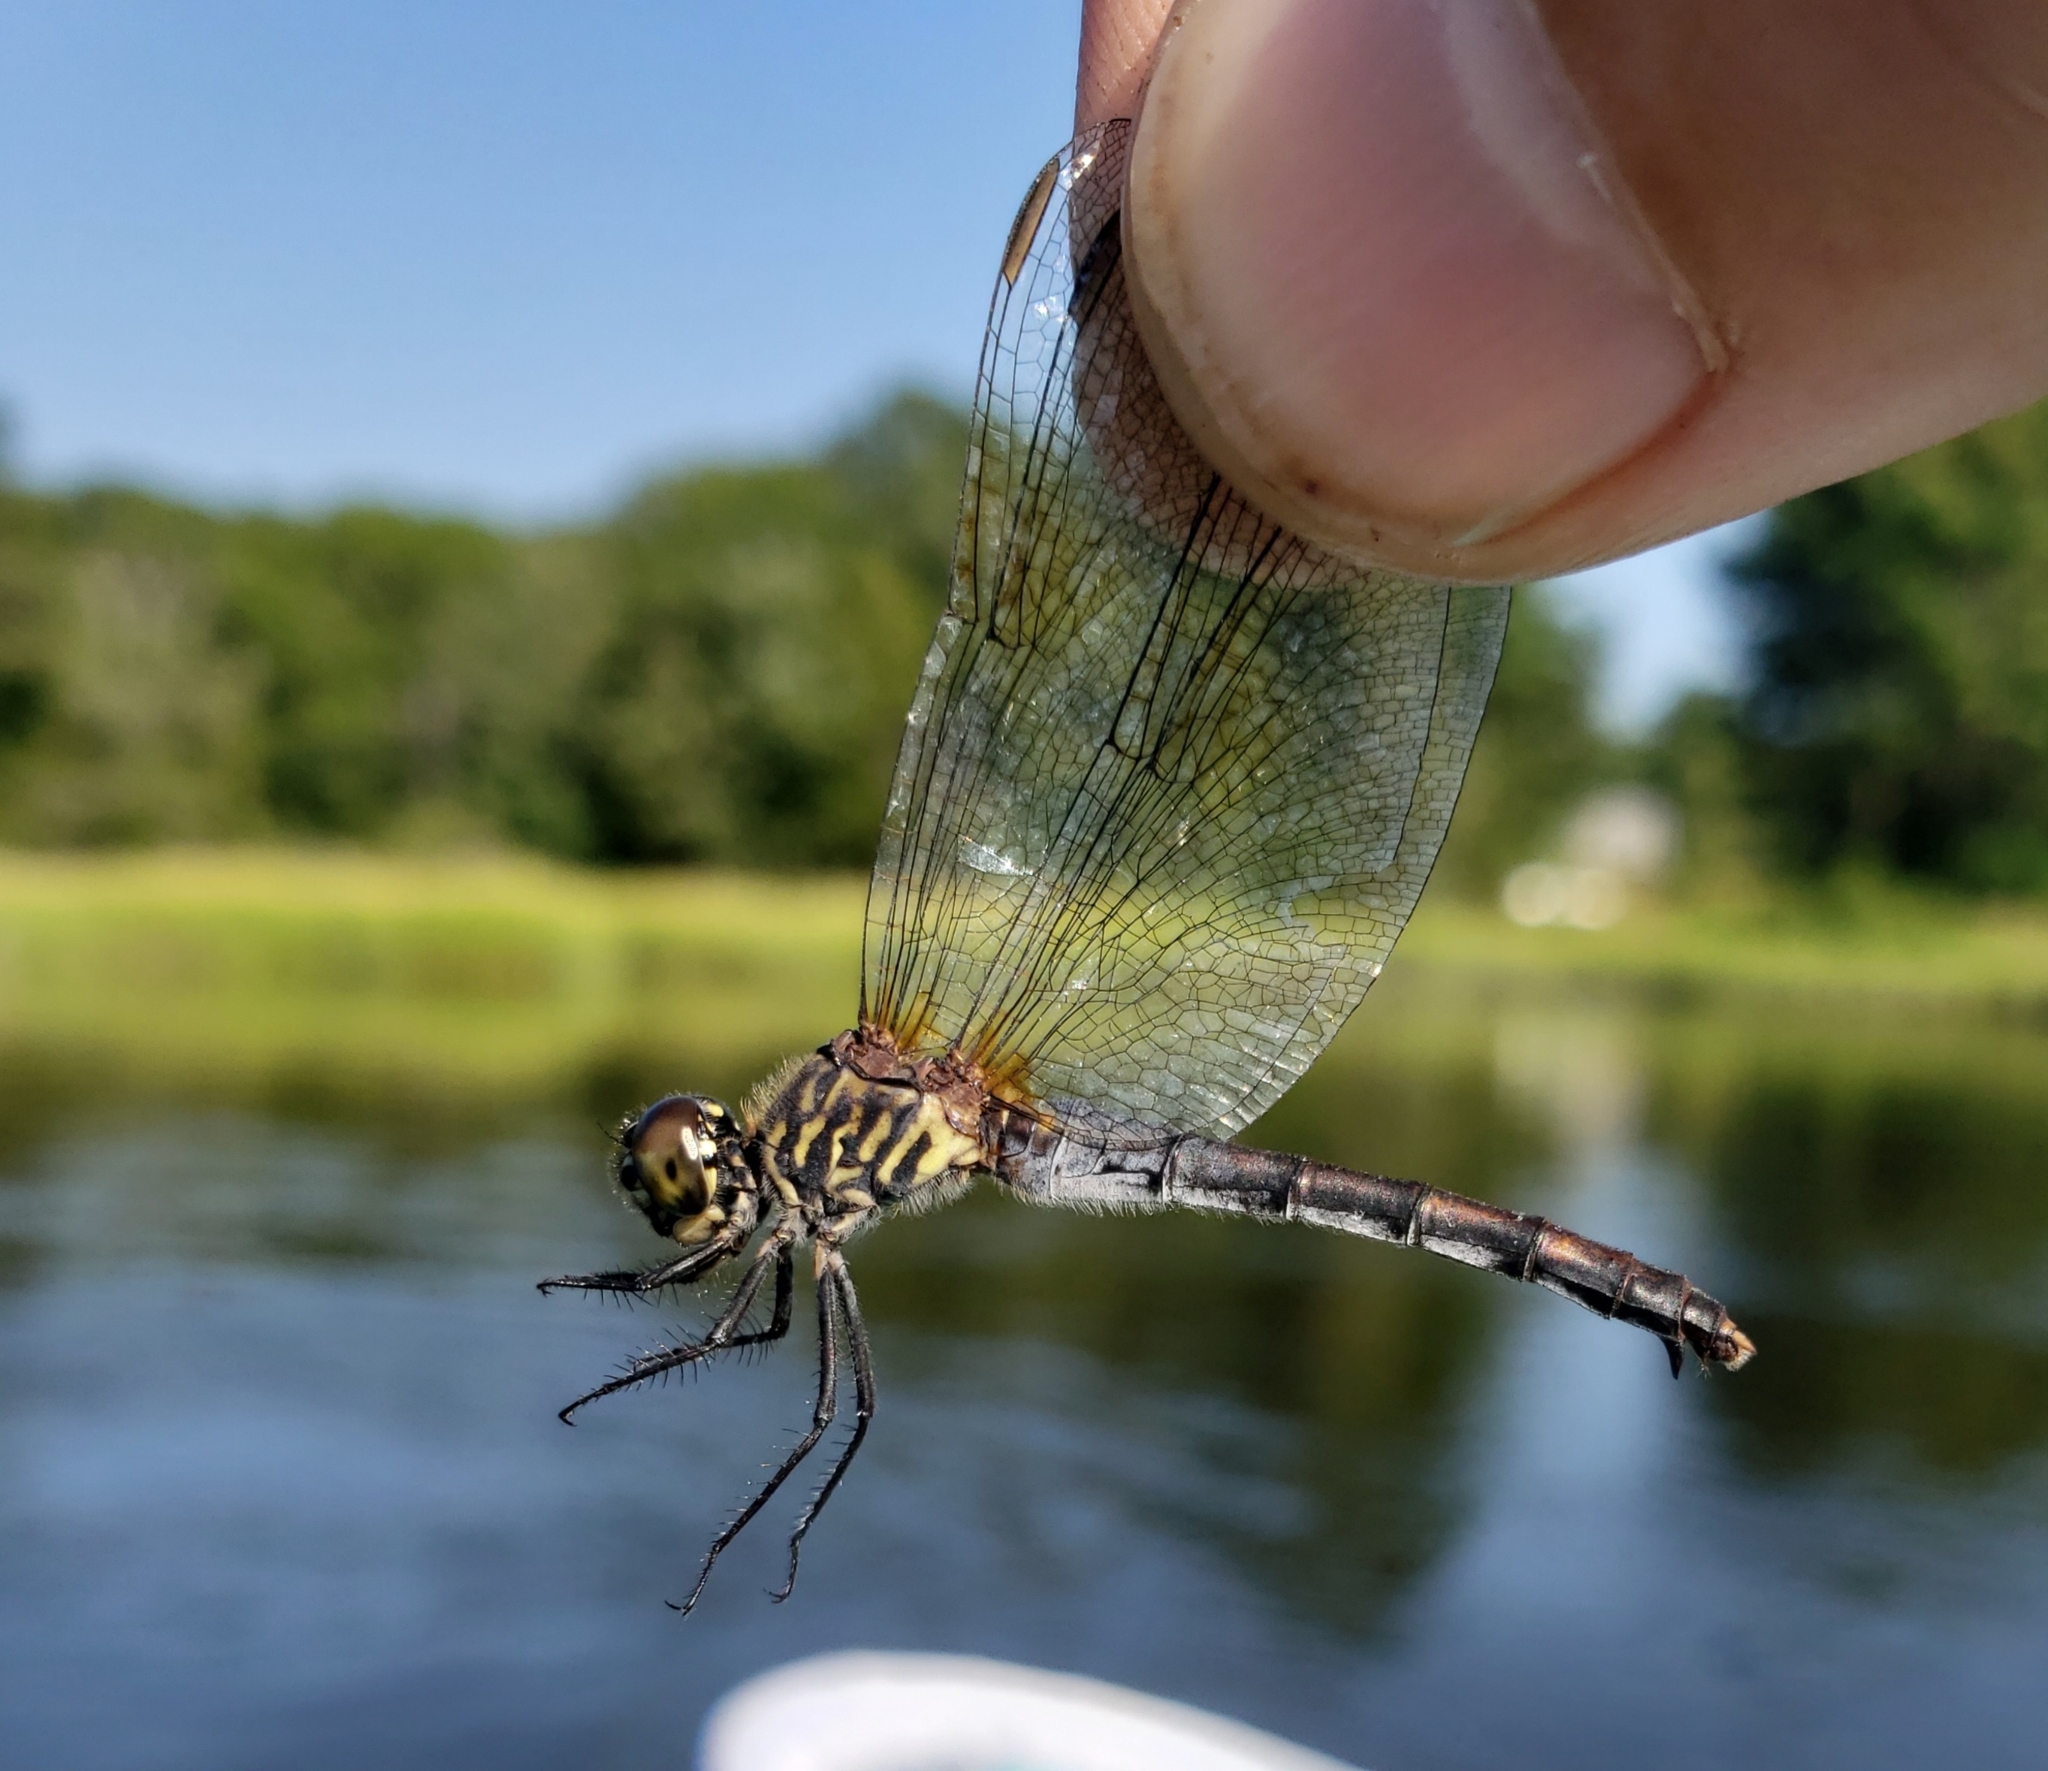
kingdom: Animalia
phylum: Arthropoda
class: Insecta
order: Odonata
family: Libellulidae
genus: Erythrodiplax
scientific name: Erythrodiplax berenice
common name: Seaside dragonlet
